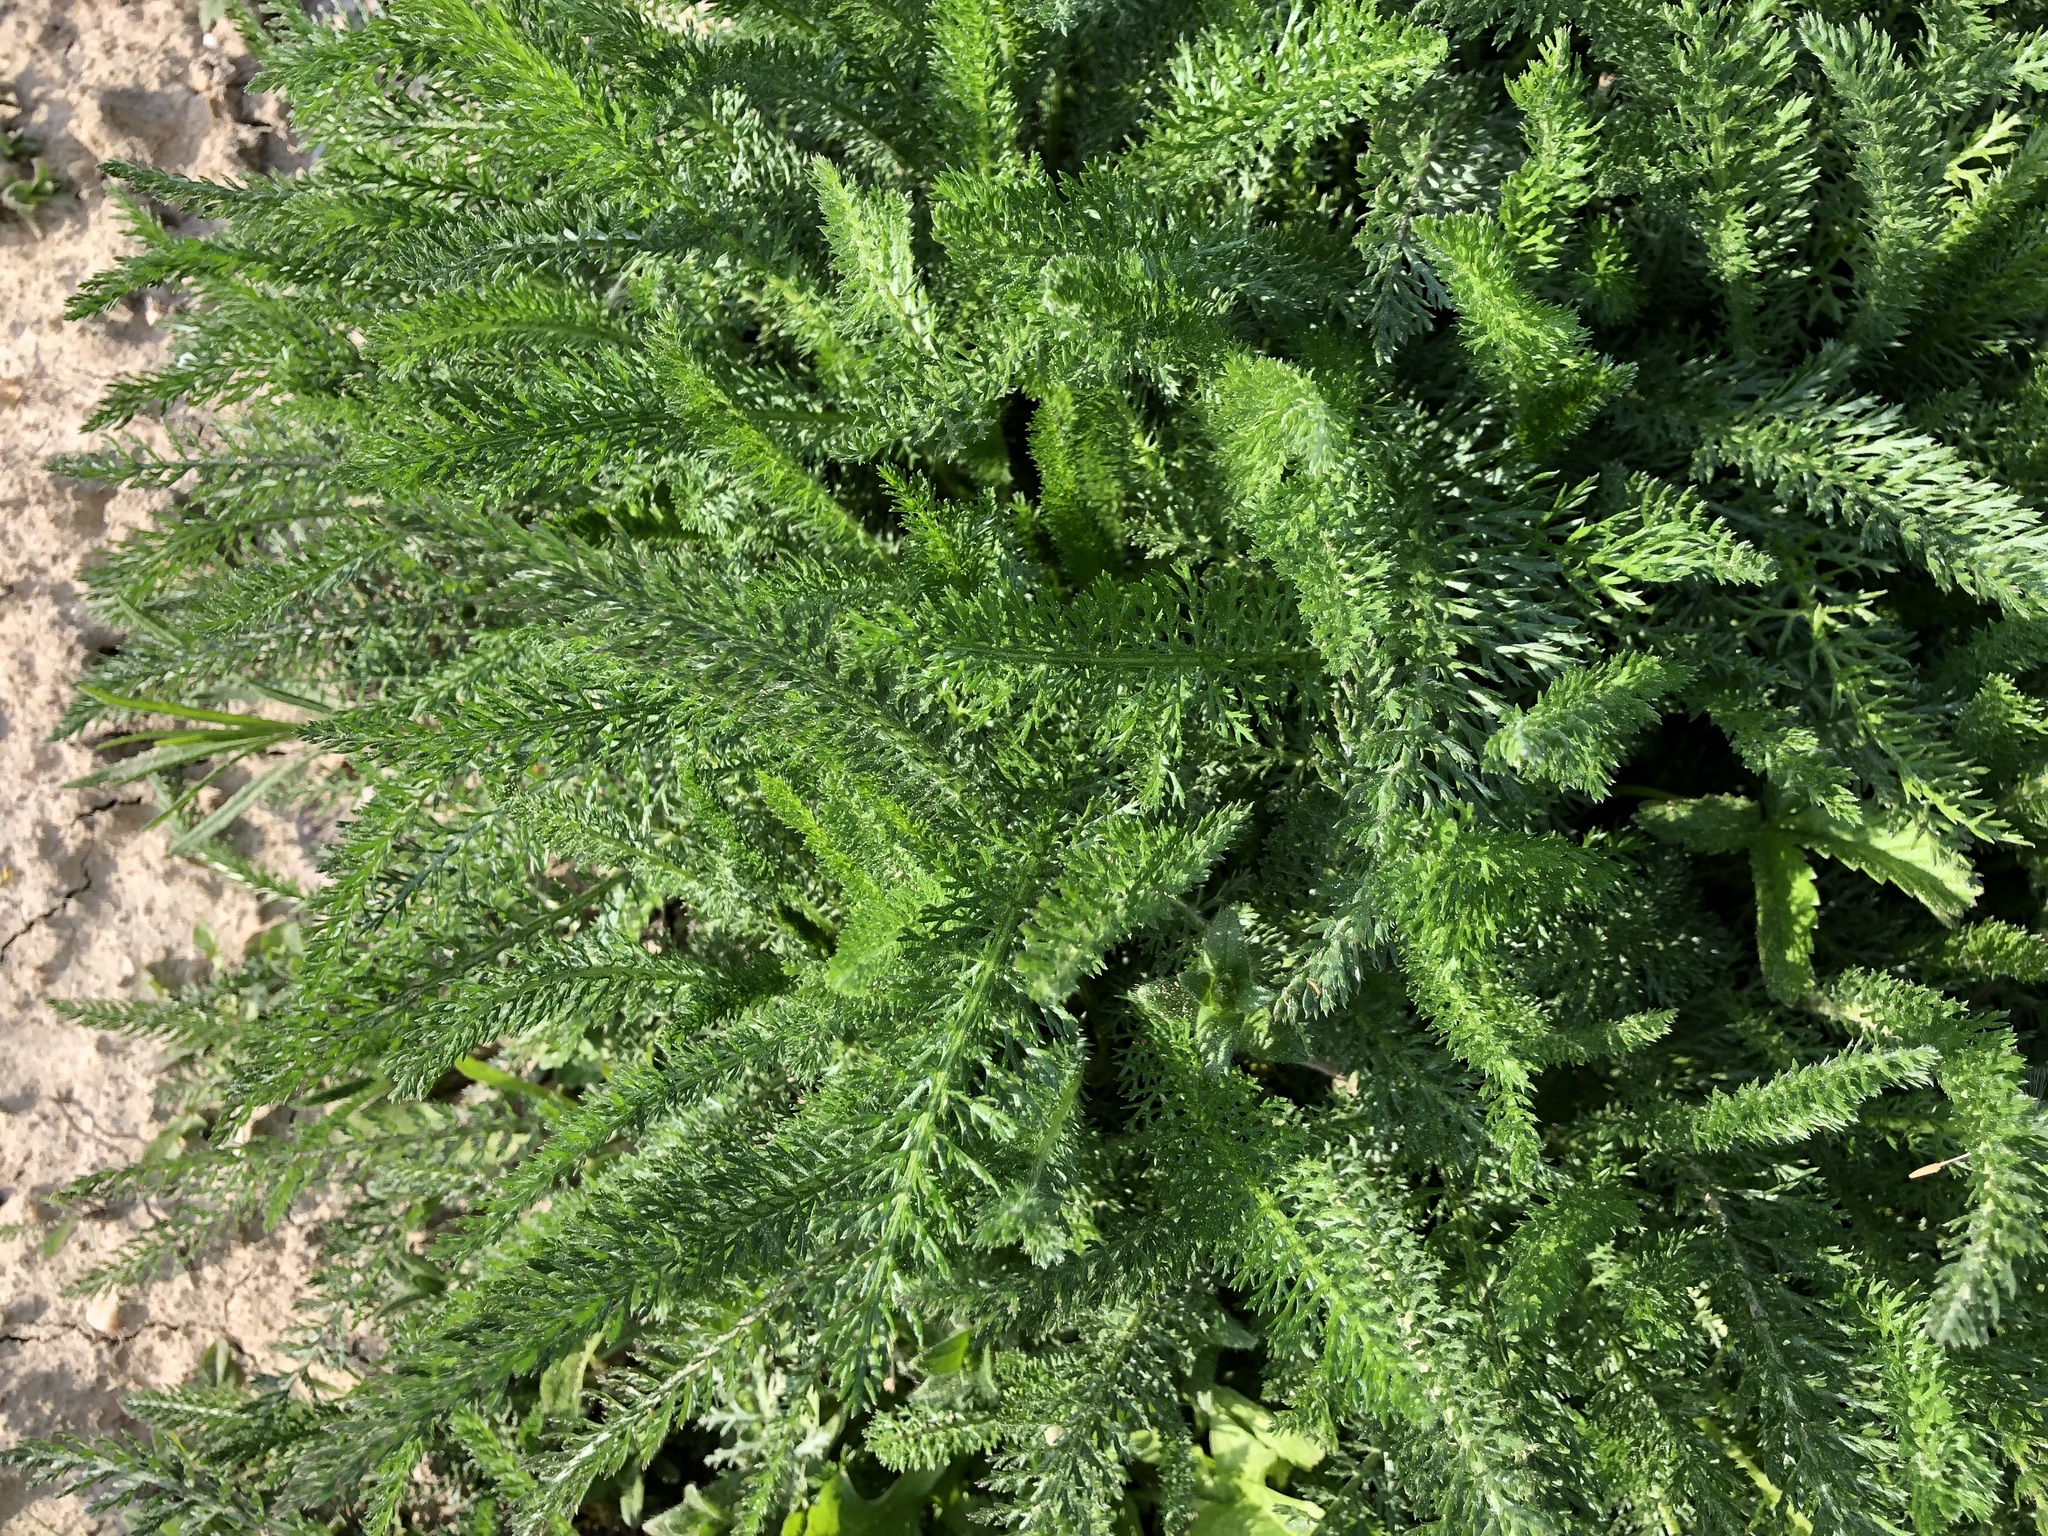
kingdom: Plantae
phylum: Tracheophyta
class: Magnoliopsida
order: Asterales
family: Asteraceae
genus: Achillea
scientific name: Achillea millefolium
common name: Yarrow
